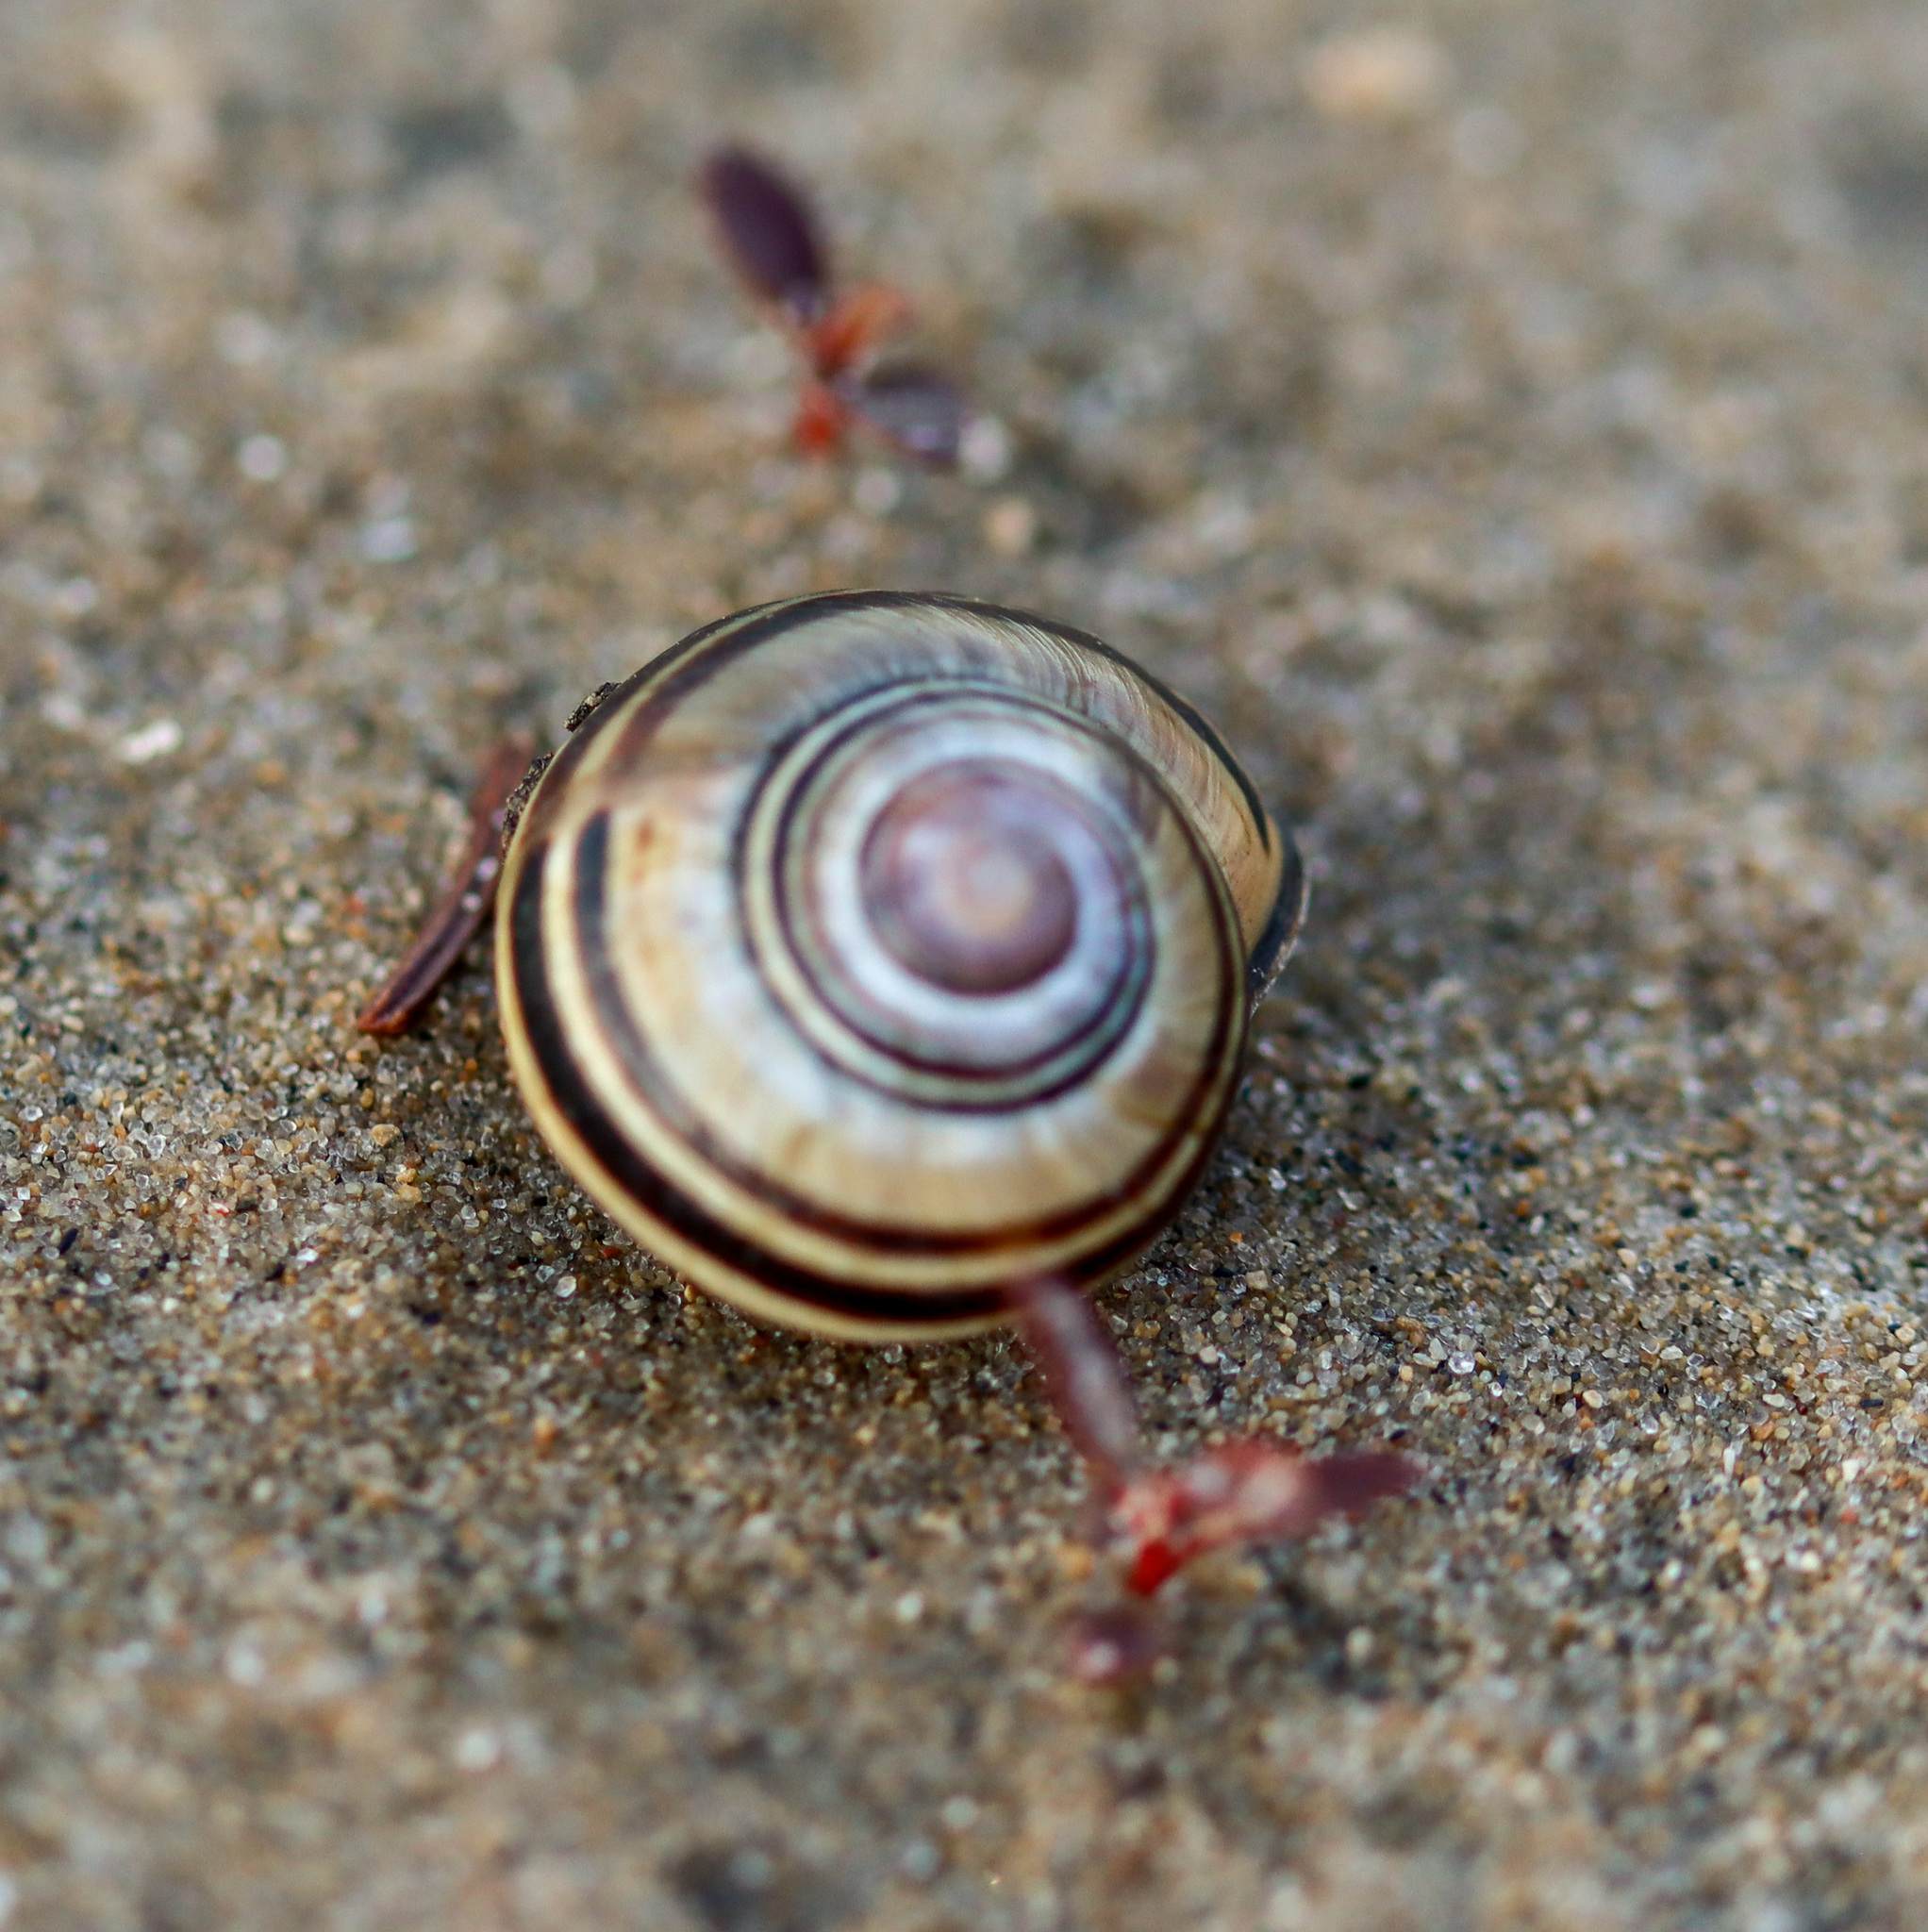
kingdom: Animalia
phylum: Mollusca
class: Gastropoda
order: Stylommatophora
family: Helicidae
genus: Cepaea
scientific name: Cepaea nemoralis
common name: Grovesnail
